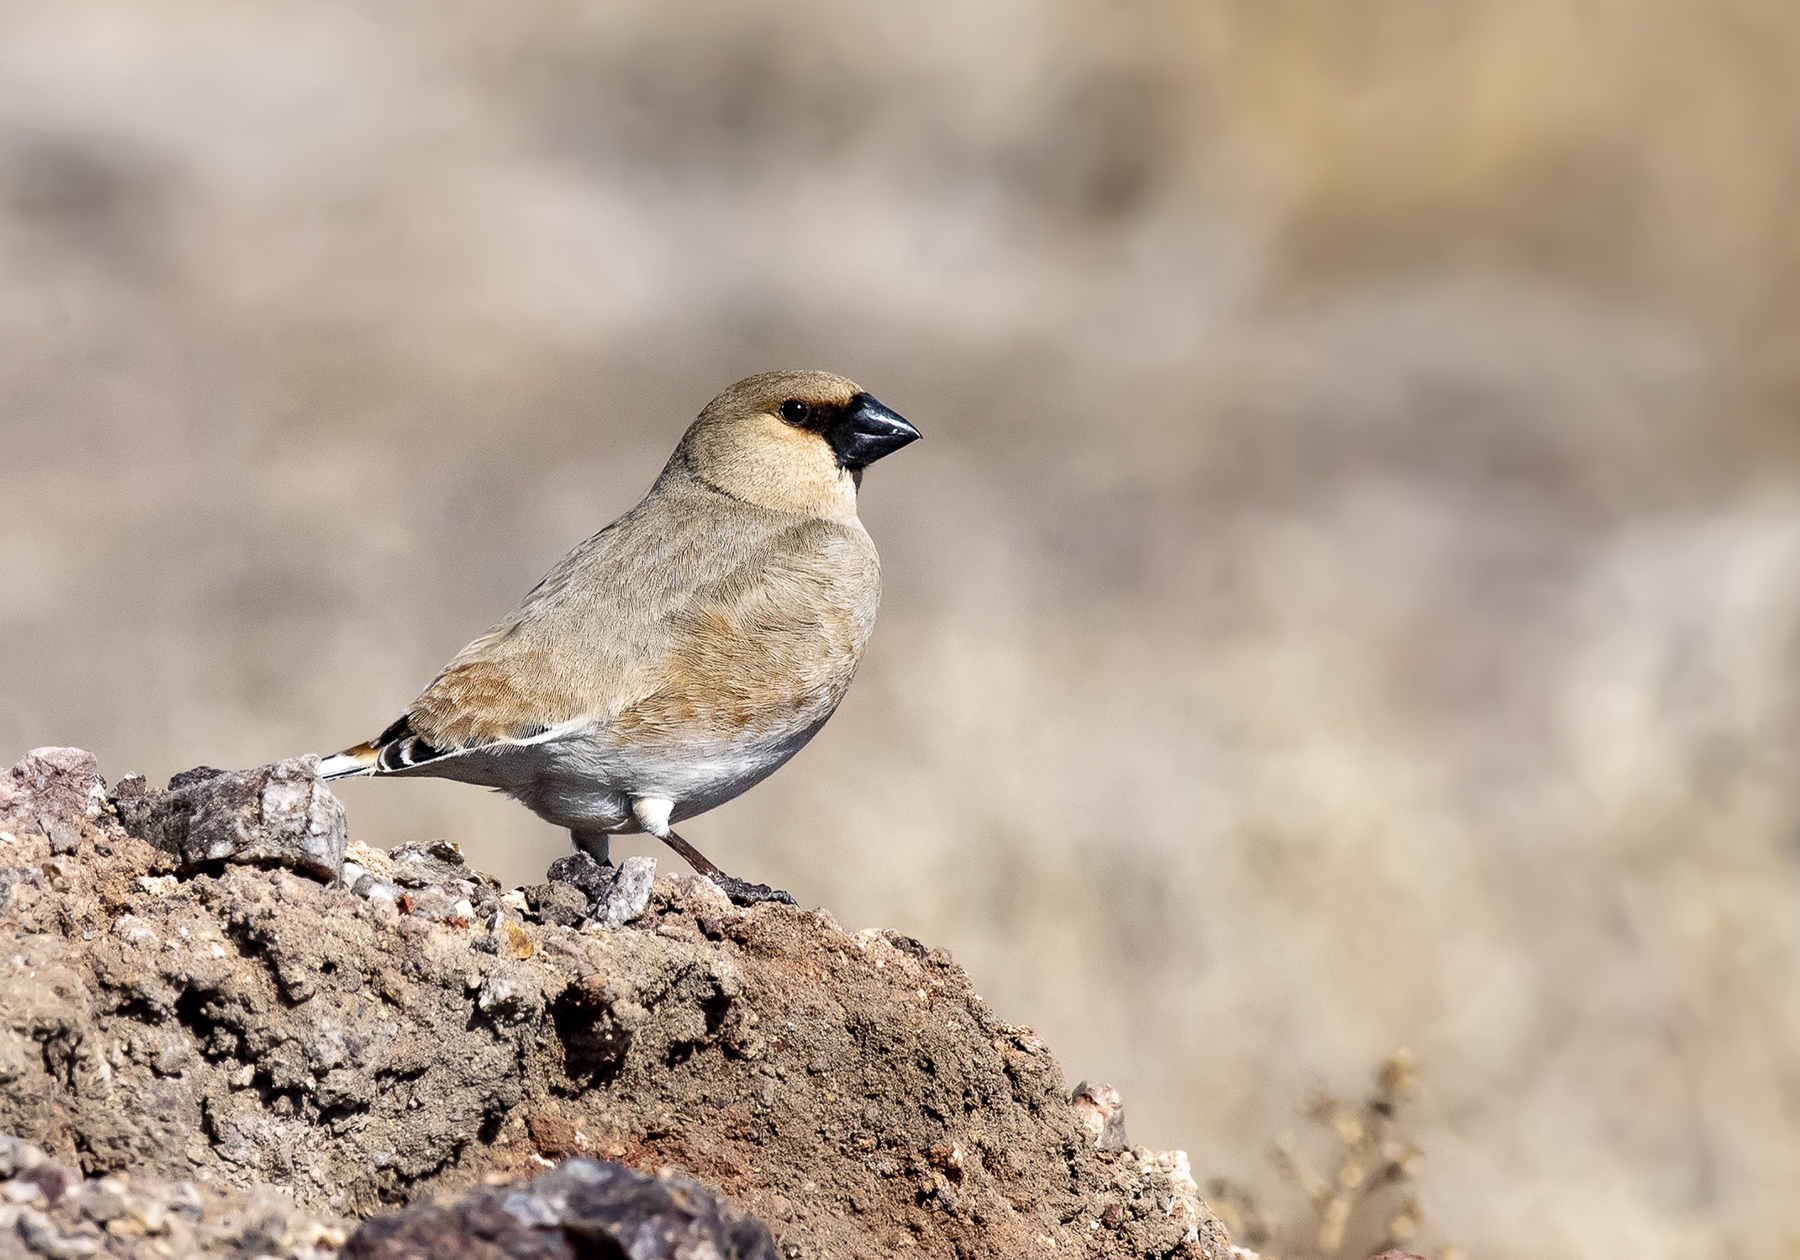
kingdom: Animalia
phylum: Chordata
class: Aves
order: Passeriformes
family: Fringillidae
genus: Rhodospiza
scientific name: Rhodospiza obsoleta
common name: Desert finch
